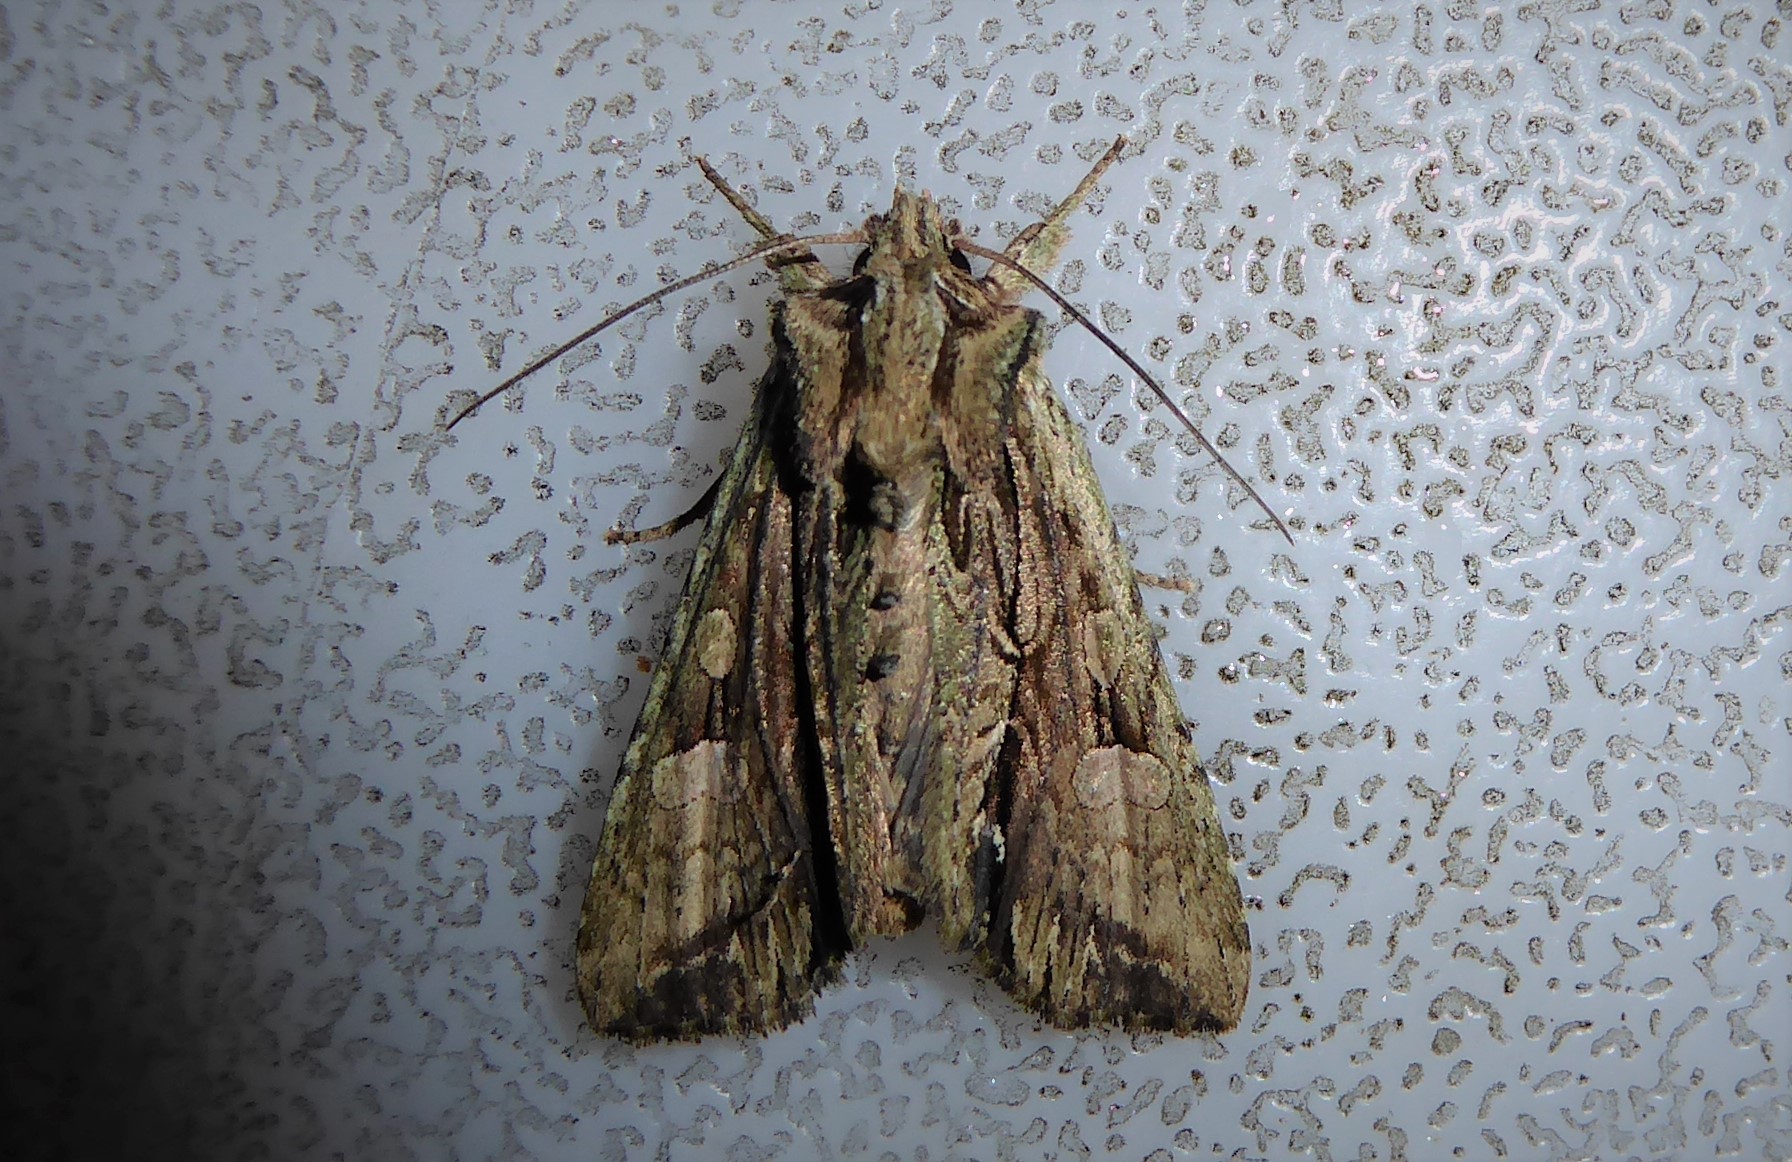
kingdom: Animalia
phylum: Arthropoda
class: Insecta
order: Lepidoptera
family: Noctuidae
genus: Meterana
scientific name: Meterana decorata
